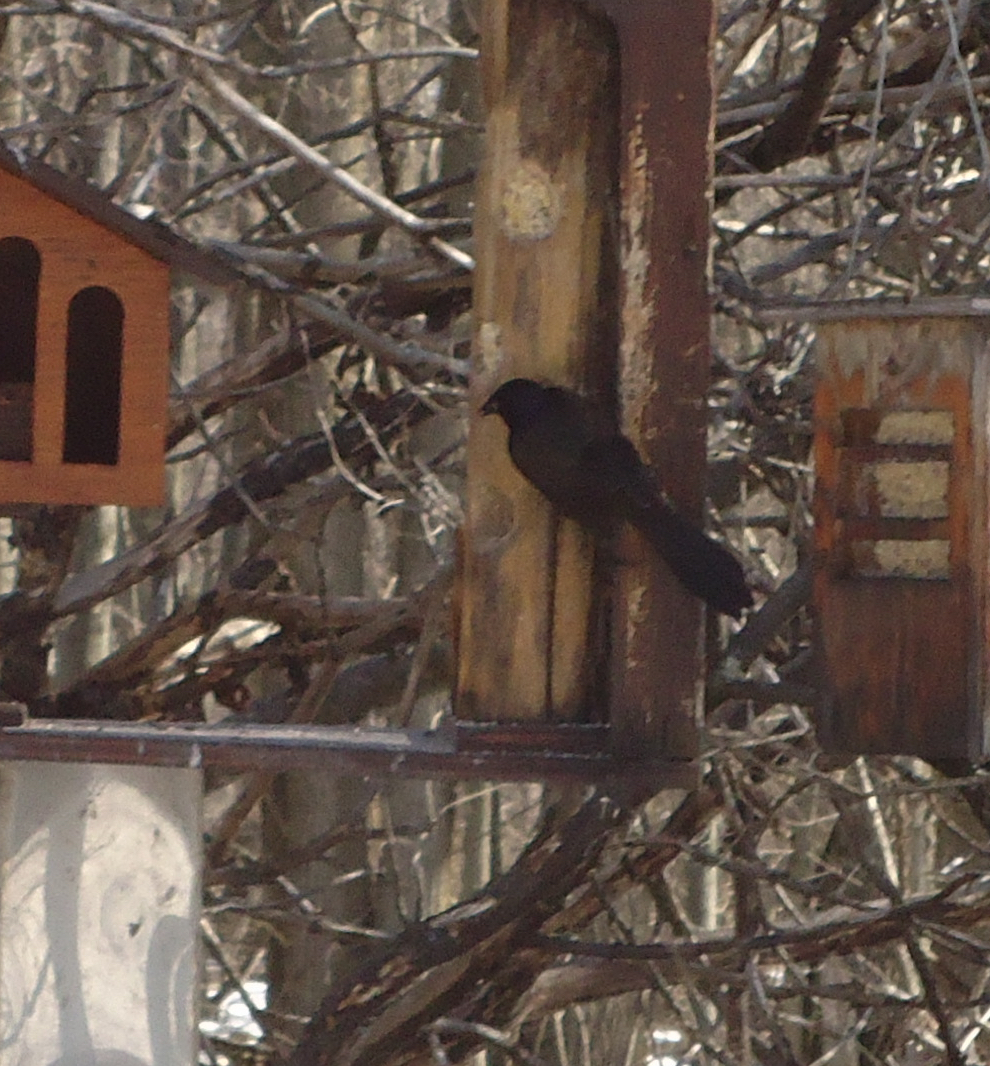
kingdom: Animalia
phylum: Chordata
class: Aves
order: Passeriformes
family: Icteridae
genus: Quiscalus
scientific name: Quiscalus quiscula
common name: Common grackle
